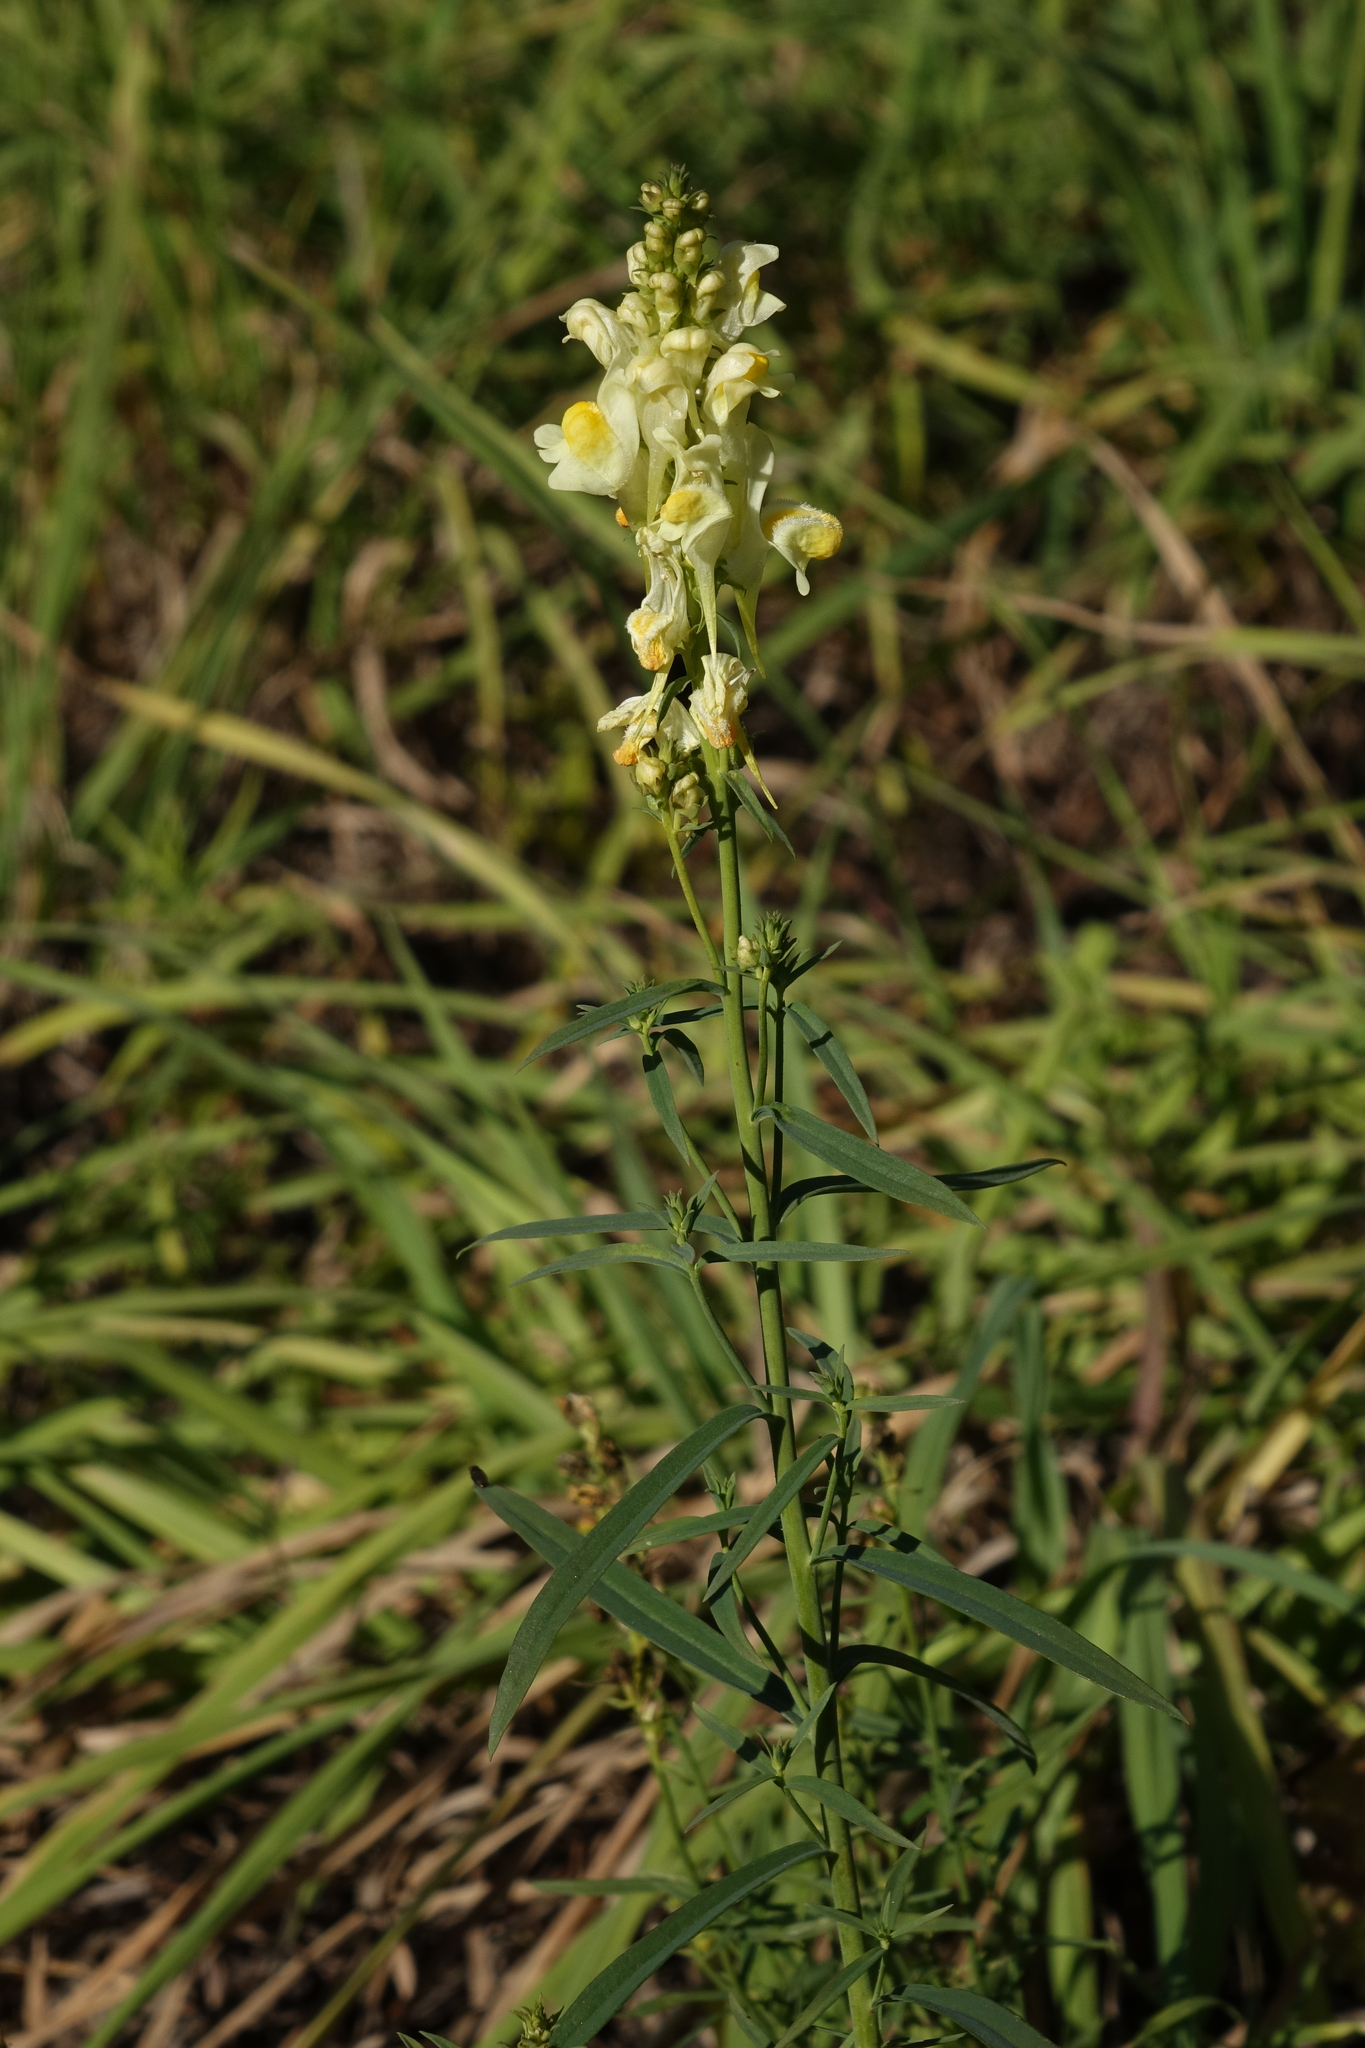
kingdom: Plantae
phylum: Tracheophyta
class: Magnoliopsida
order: Lamiales
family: Plantaginaceae
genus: Linaria
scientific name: Linaria vulgaris
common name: Butter and eggs
